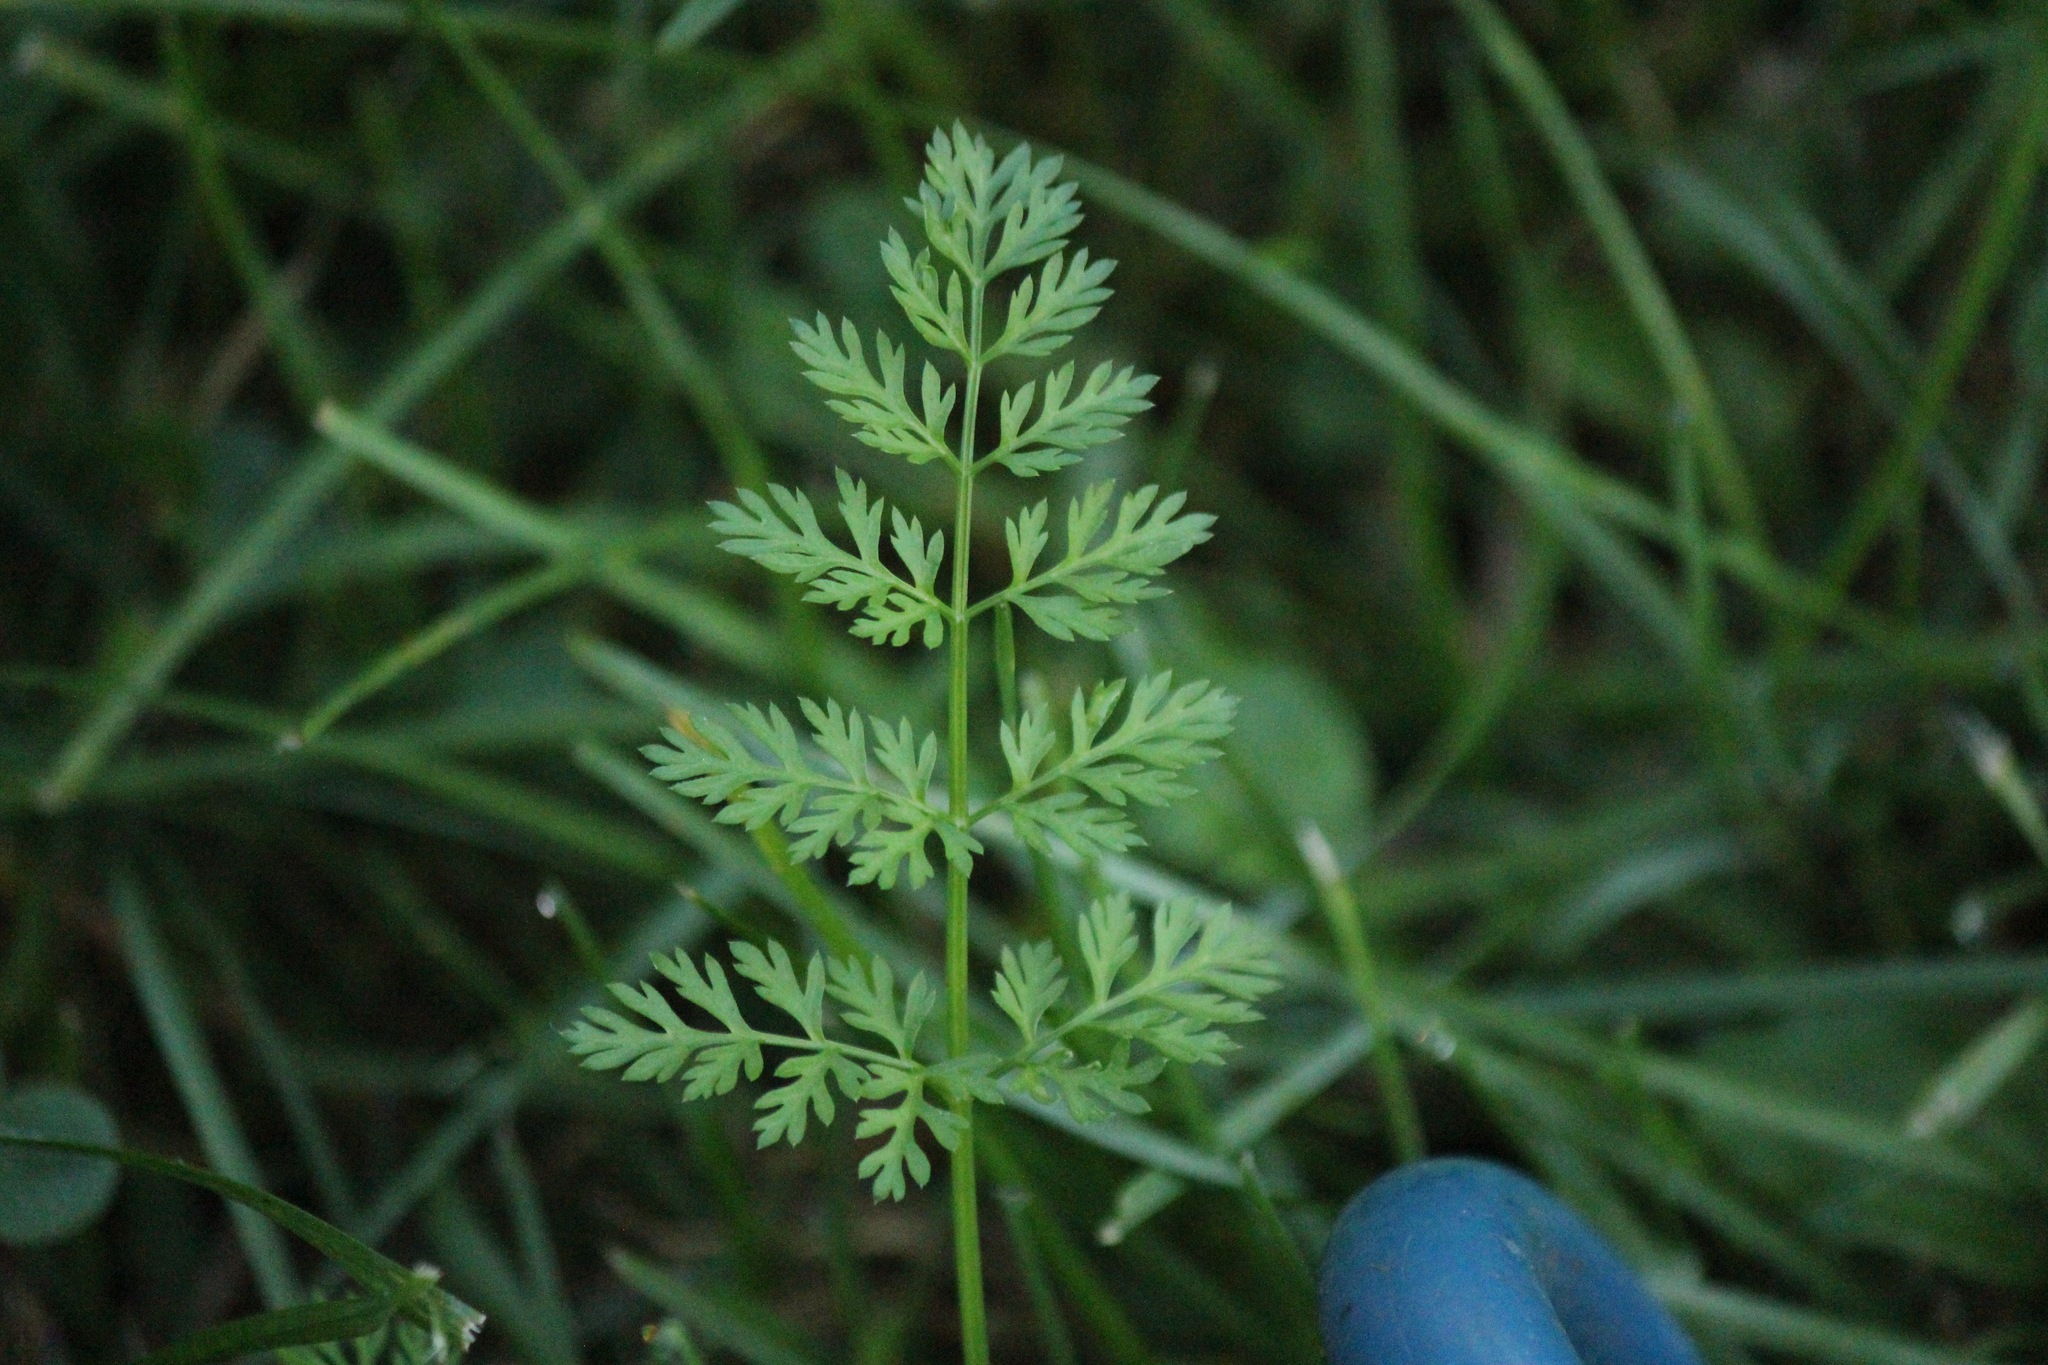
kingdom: Plantae
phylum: Tracheophyta
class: Magnoliopsida
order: Apiales
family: Apiaceae
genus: Daucus
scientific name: Daucus carota
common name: Wild carrot
